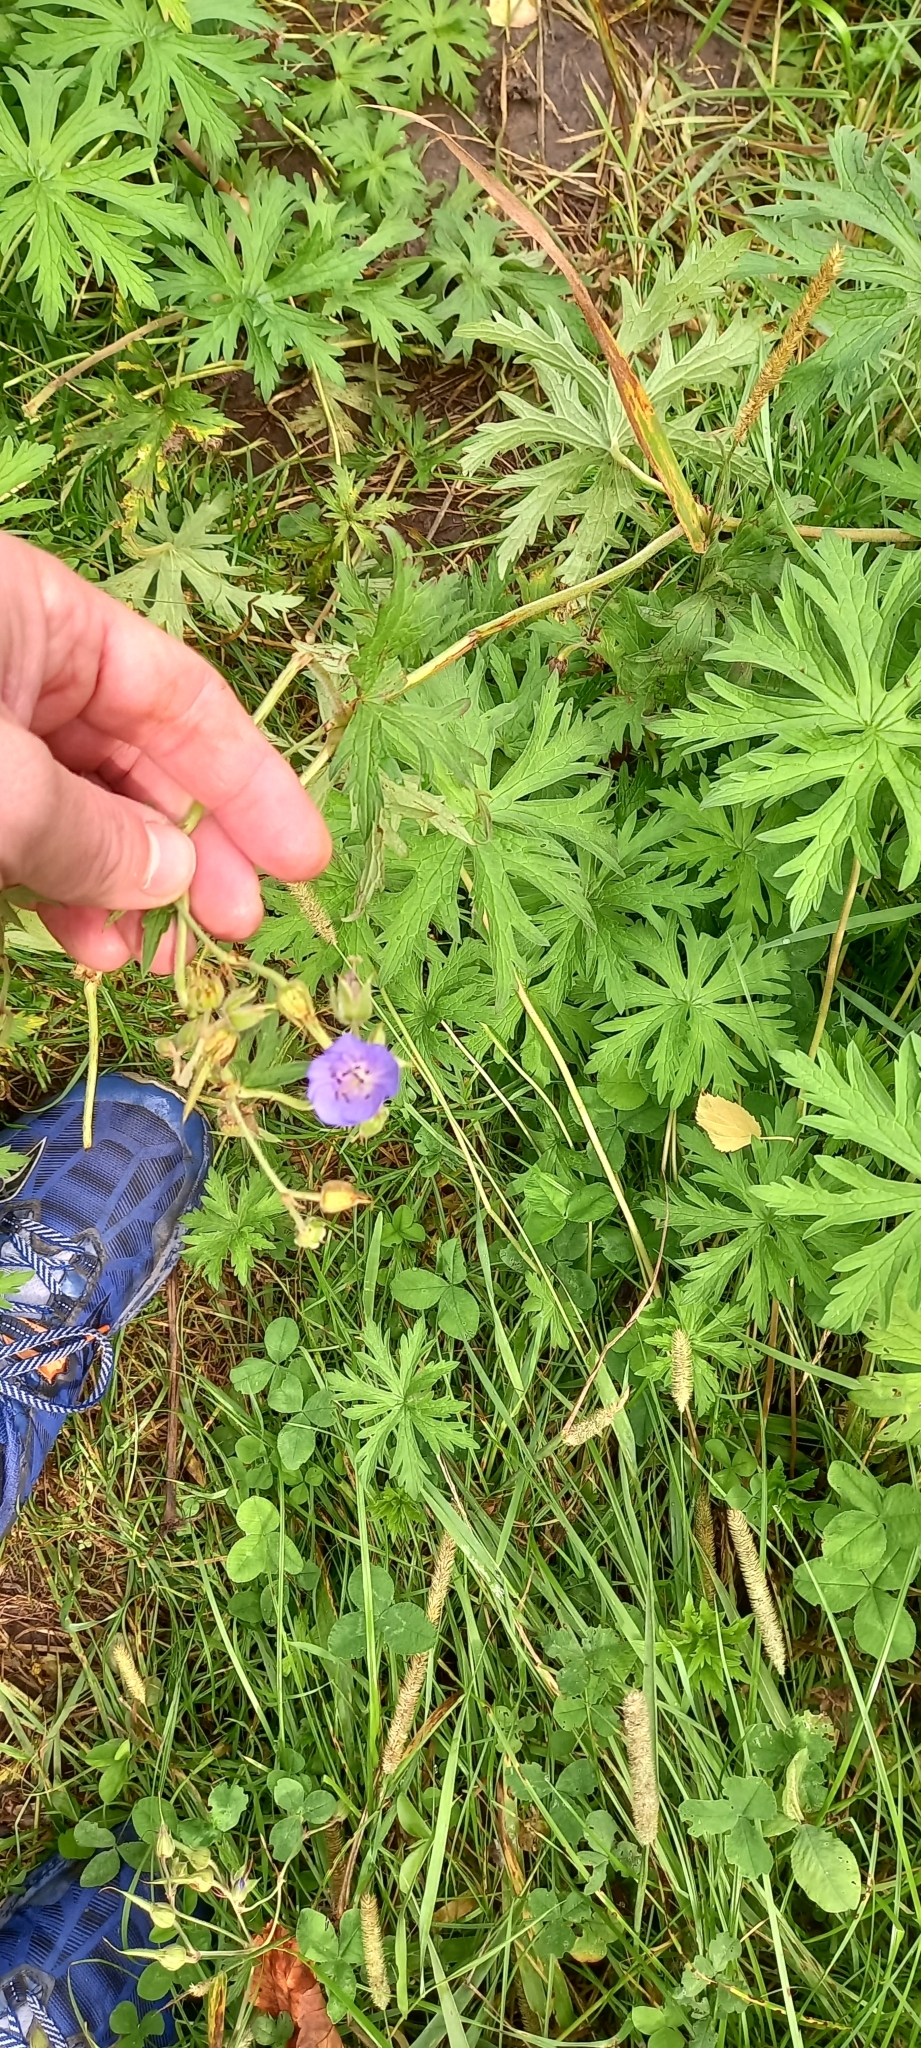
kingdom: Plantae
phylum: Tracheophyta
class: Magnoliopsida
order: Geraniales
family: Geraniaceae
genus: Geranium
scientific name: Geranium pratense
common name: Meadow crane's-bill
